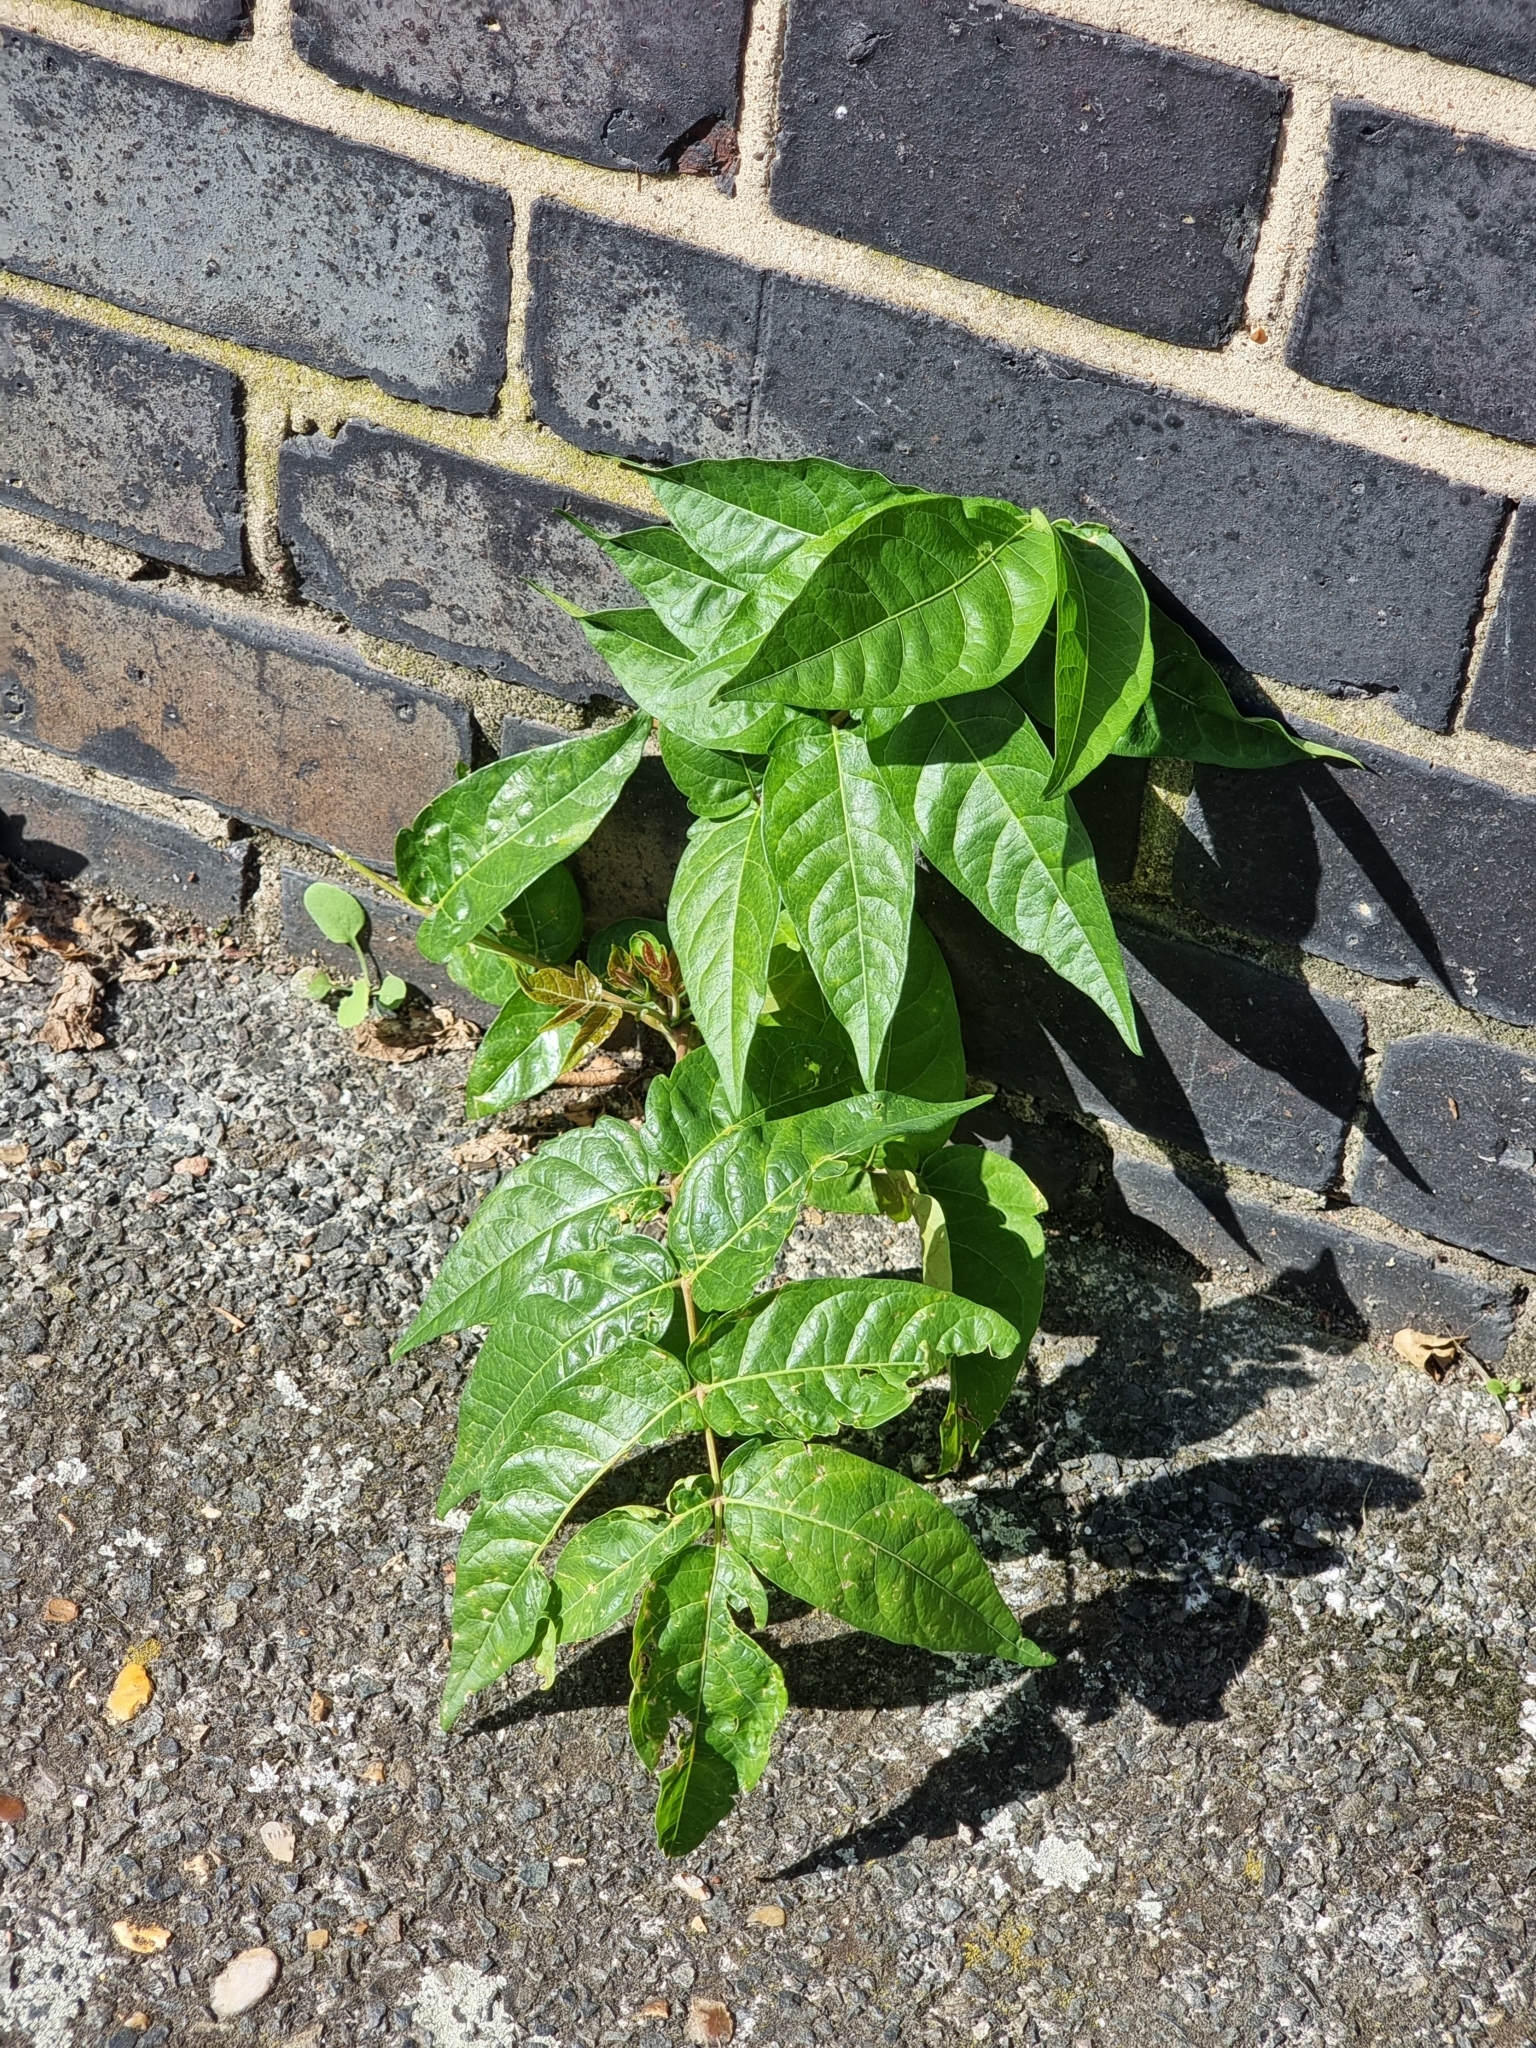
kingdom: Plantae
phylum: Tracheophyta
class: Magnoliopsida
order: Sapindales
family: Simaroubaceae
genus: Ailanthus
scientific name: Ailanthus altissima
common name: Tree-of-heaven
